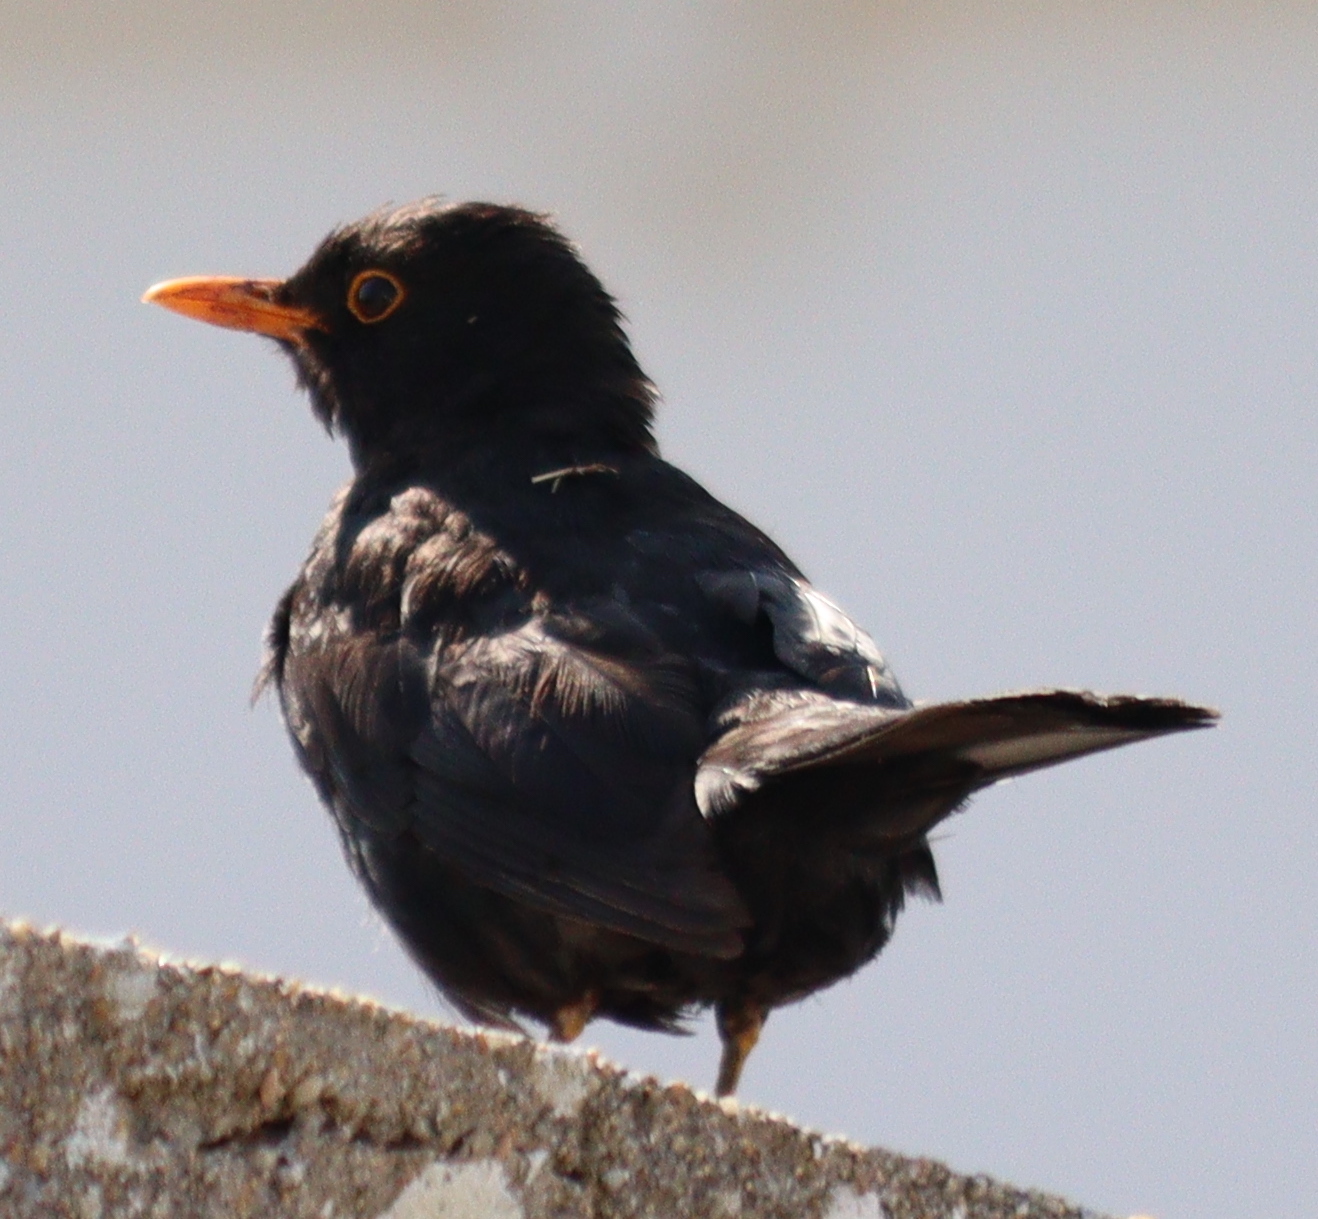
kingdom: Animalia
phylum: Chordata
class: Aves
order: Passeriformes
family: Turdidae
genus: Turdus
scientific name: Turdus merula
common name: Common blackbird
